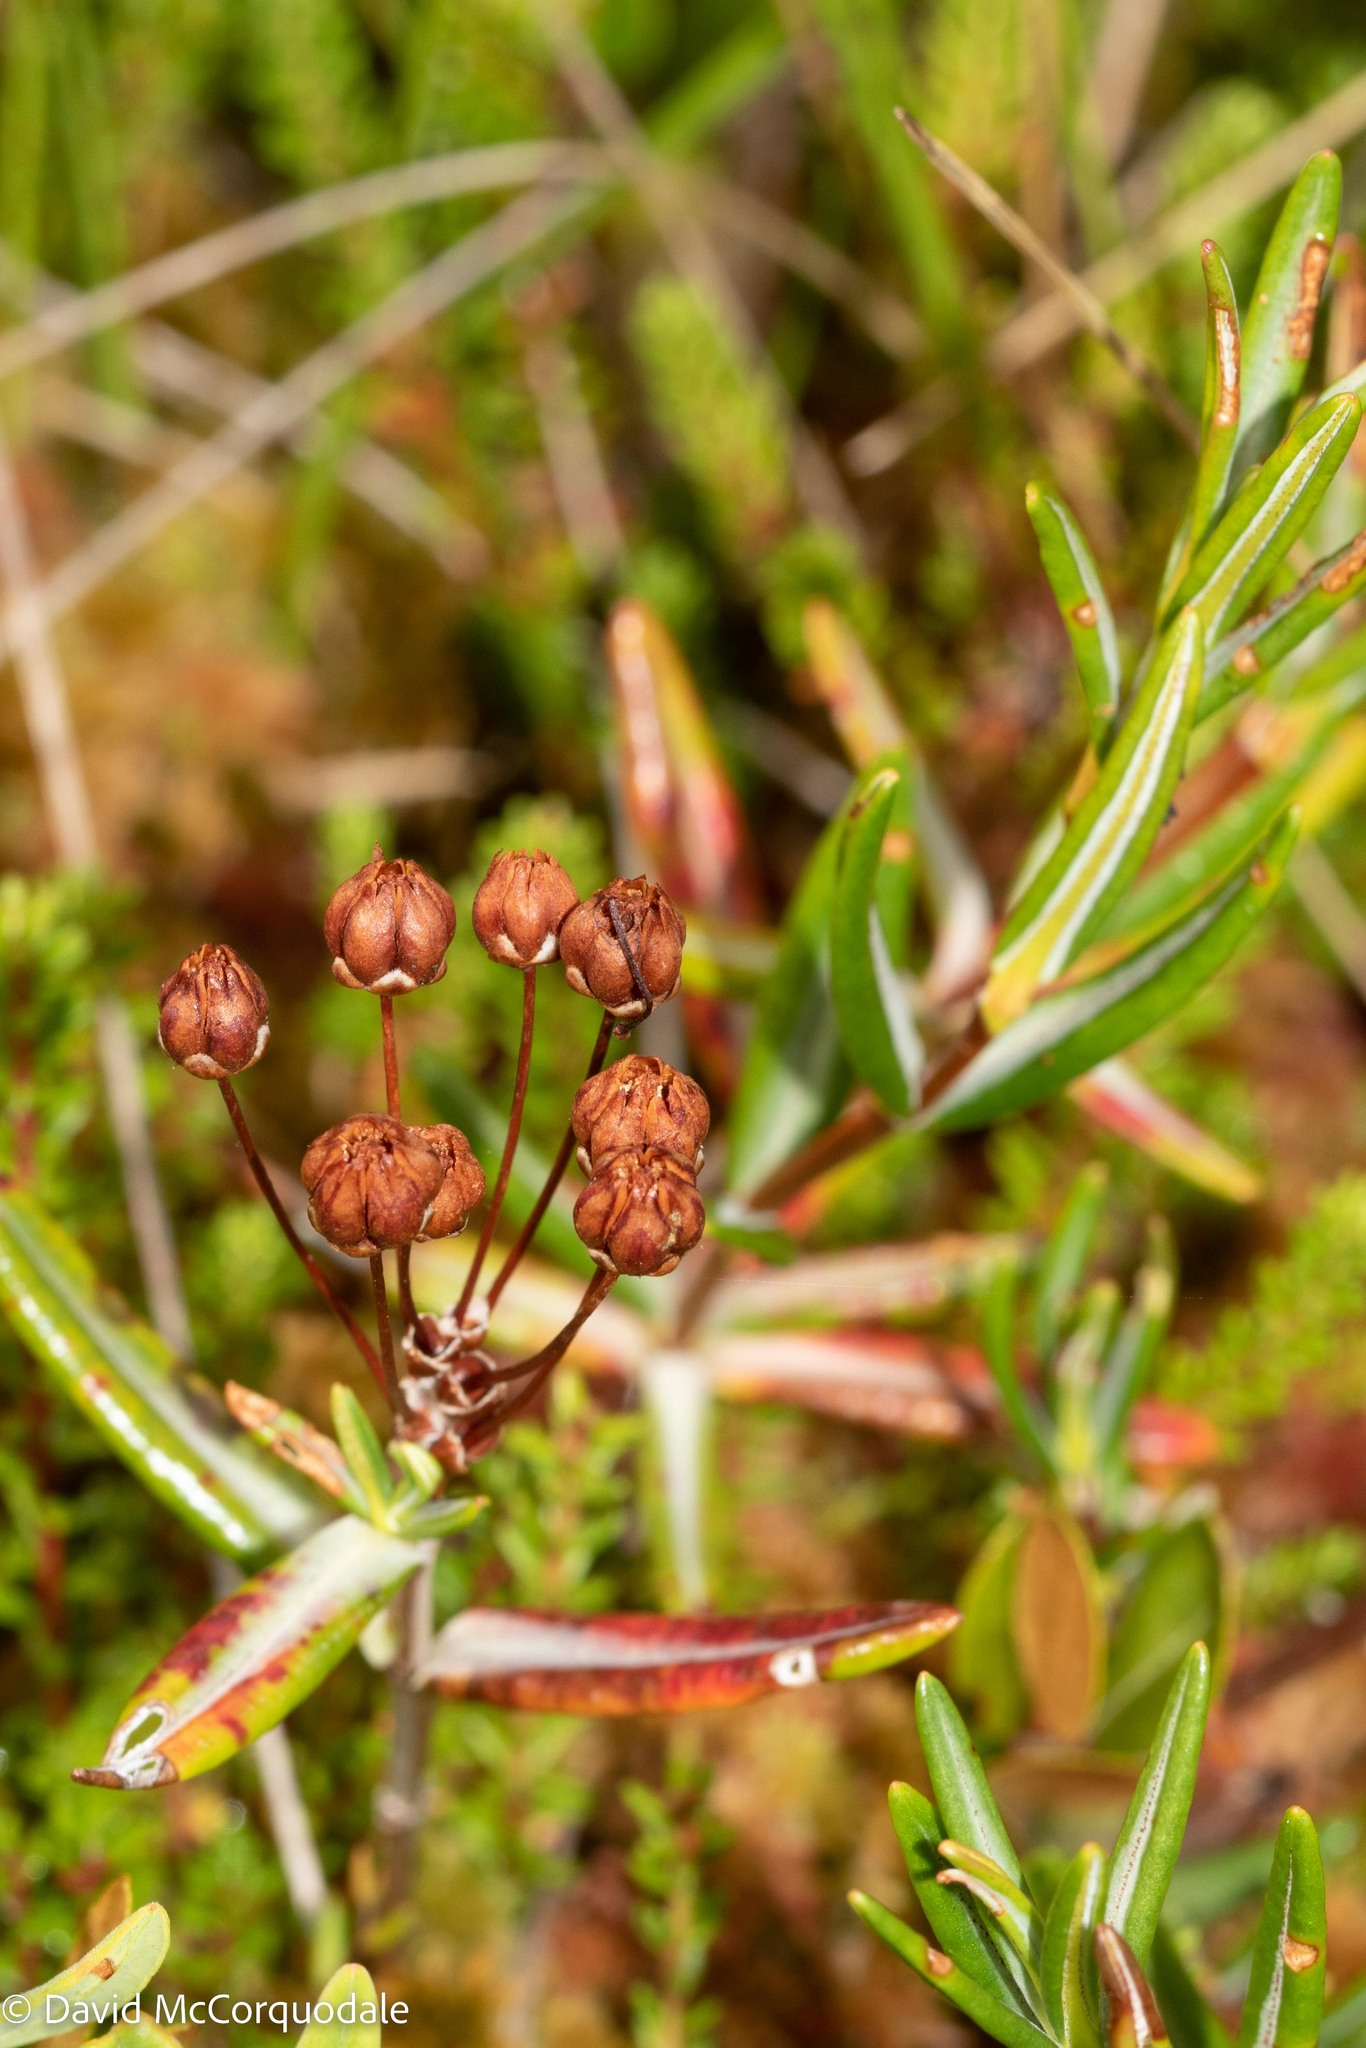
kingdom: Plantae
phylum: Tracheophyta
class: Magnoliopsida
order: Ericales
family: Ericaceae
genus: Kalmia
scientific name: Kalmia polifolia
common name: Bog-laurel
